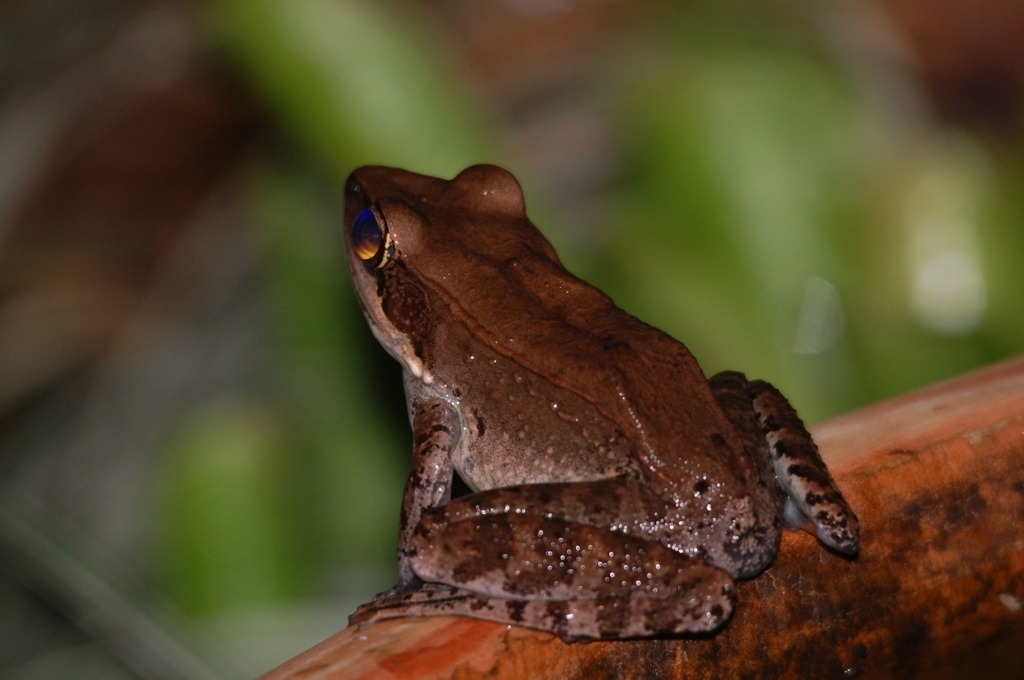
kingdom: Animalia
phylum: Chordata
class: Amphibia
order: Anura
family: Ranidae
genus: Papurana
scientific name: Papurana daemeli
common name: Arhem rana
